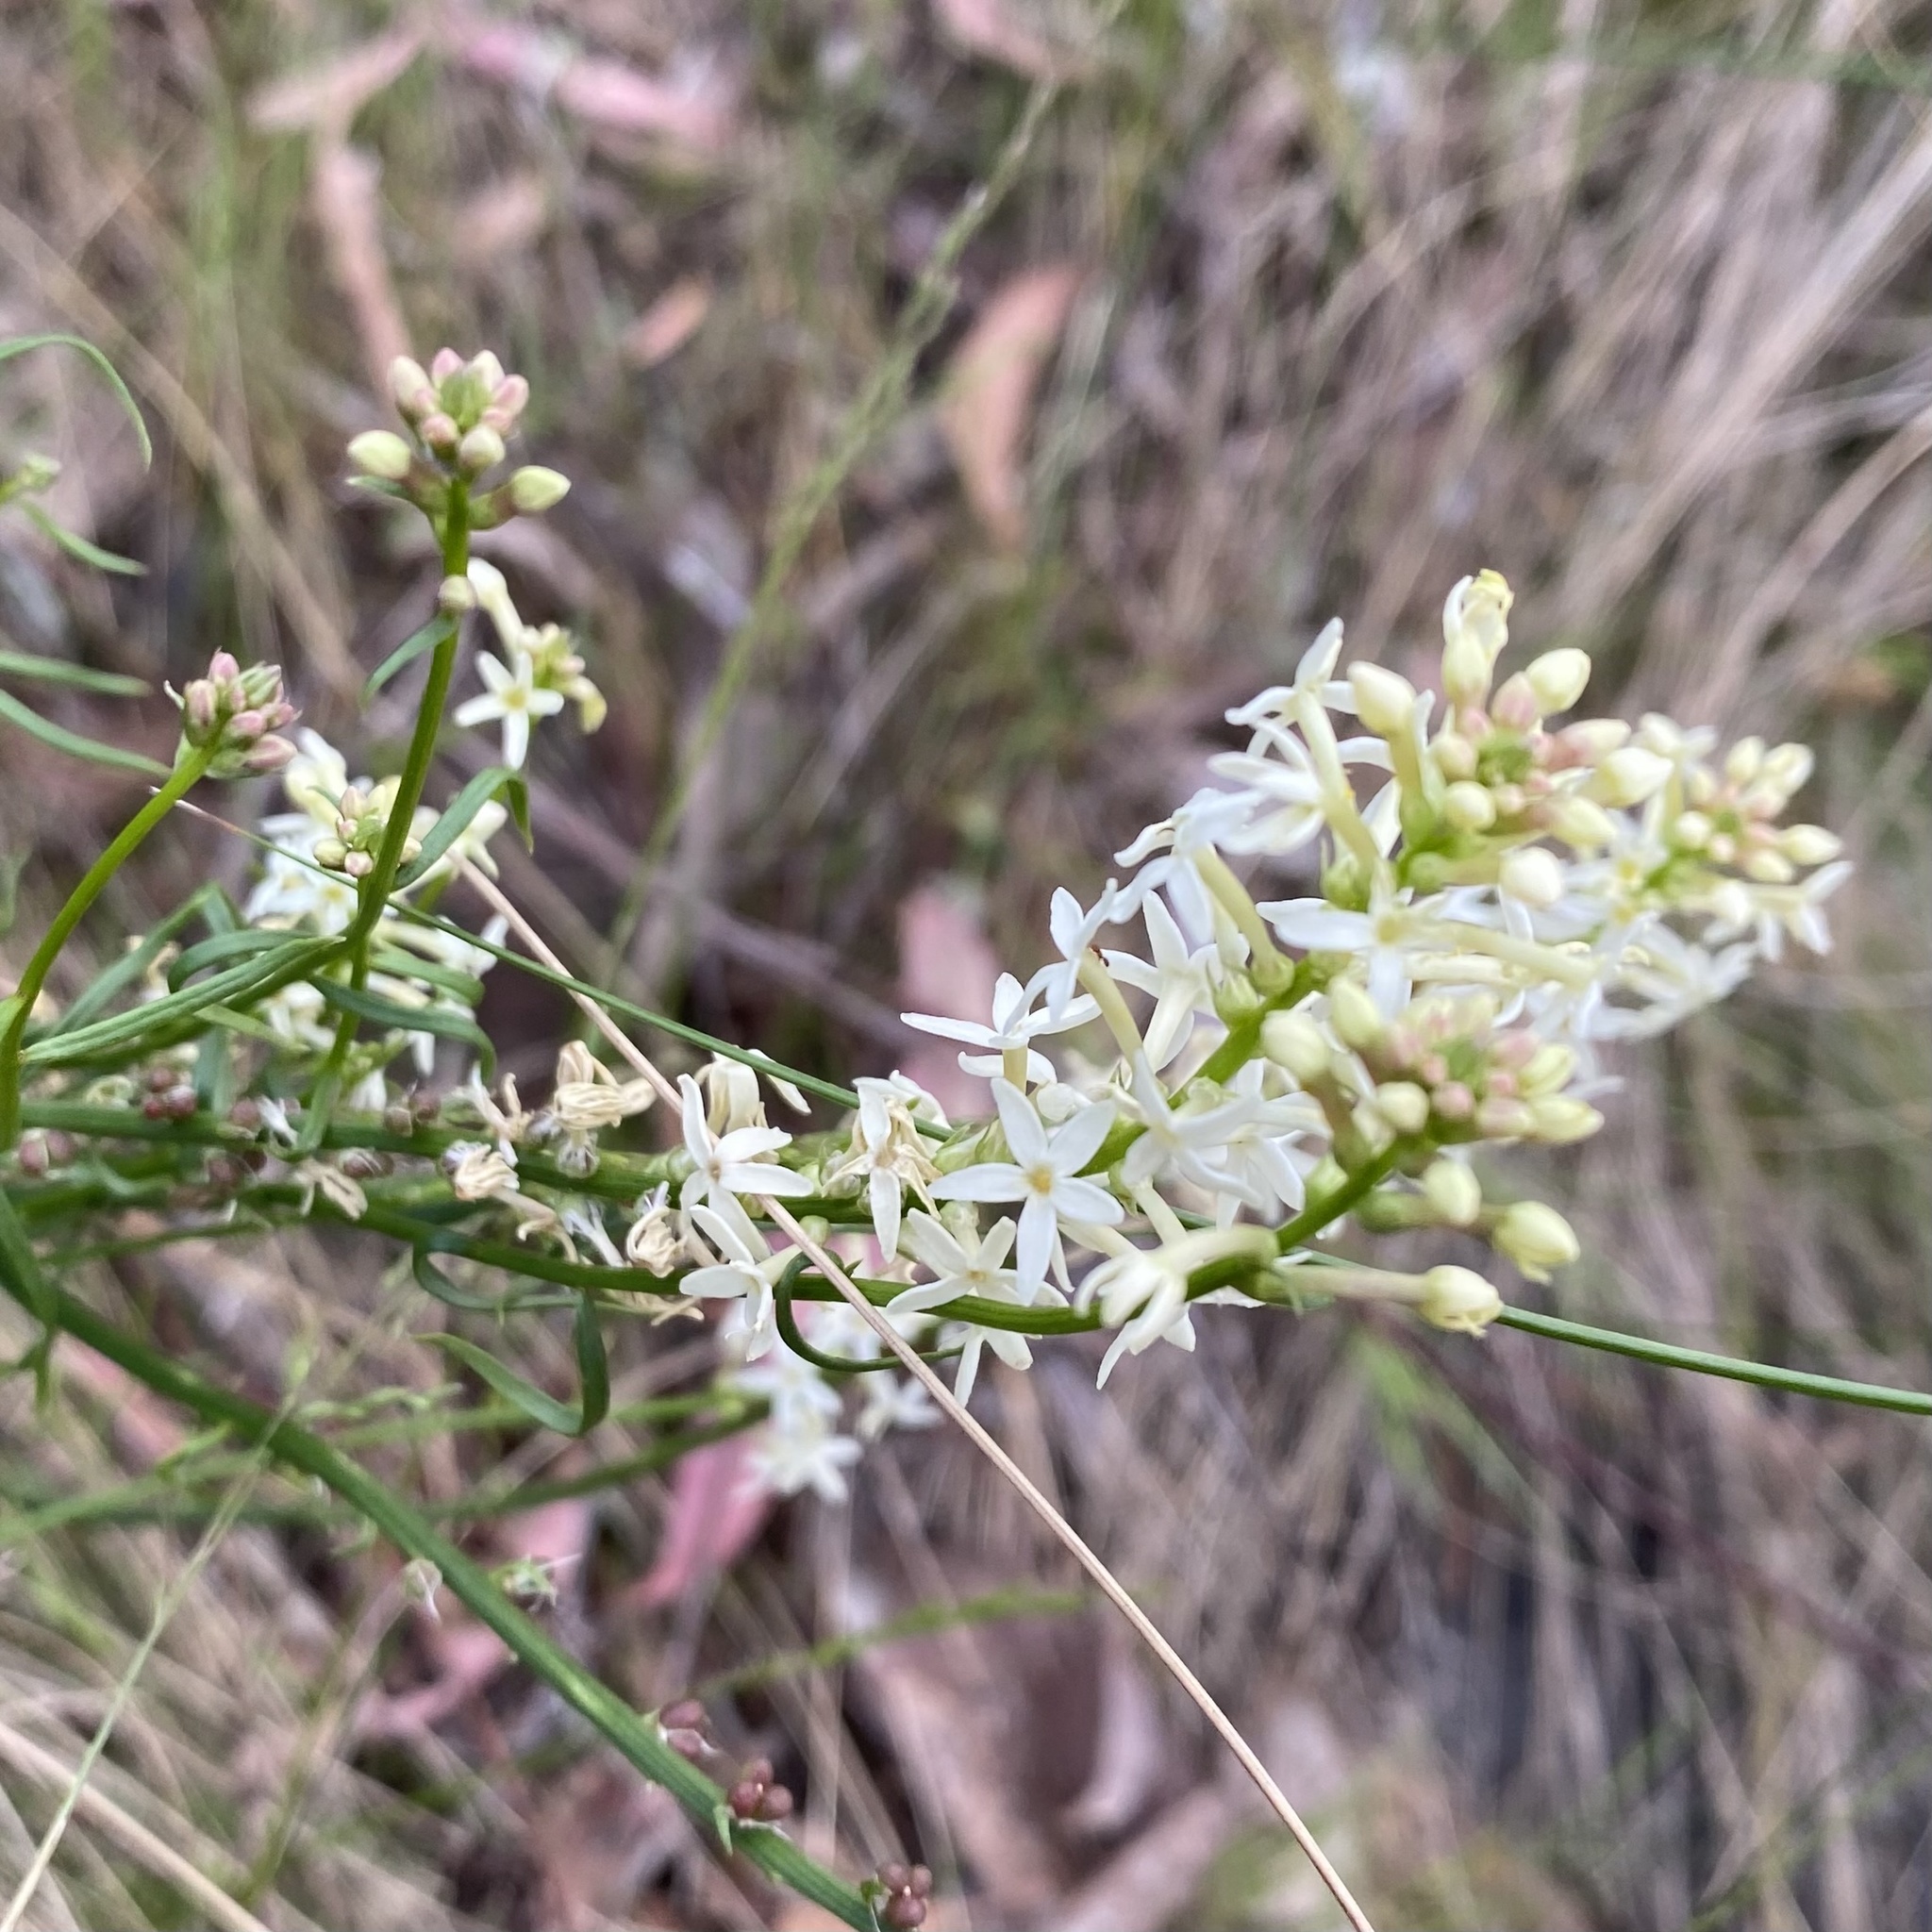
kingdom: Plantae
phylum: Tracheophyta
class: Magnoliopsida
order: Celastrales
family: Celastraceae
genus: Stackhousia
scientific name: Stackhousia monogyna
